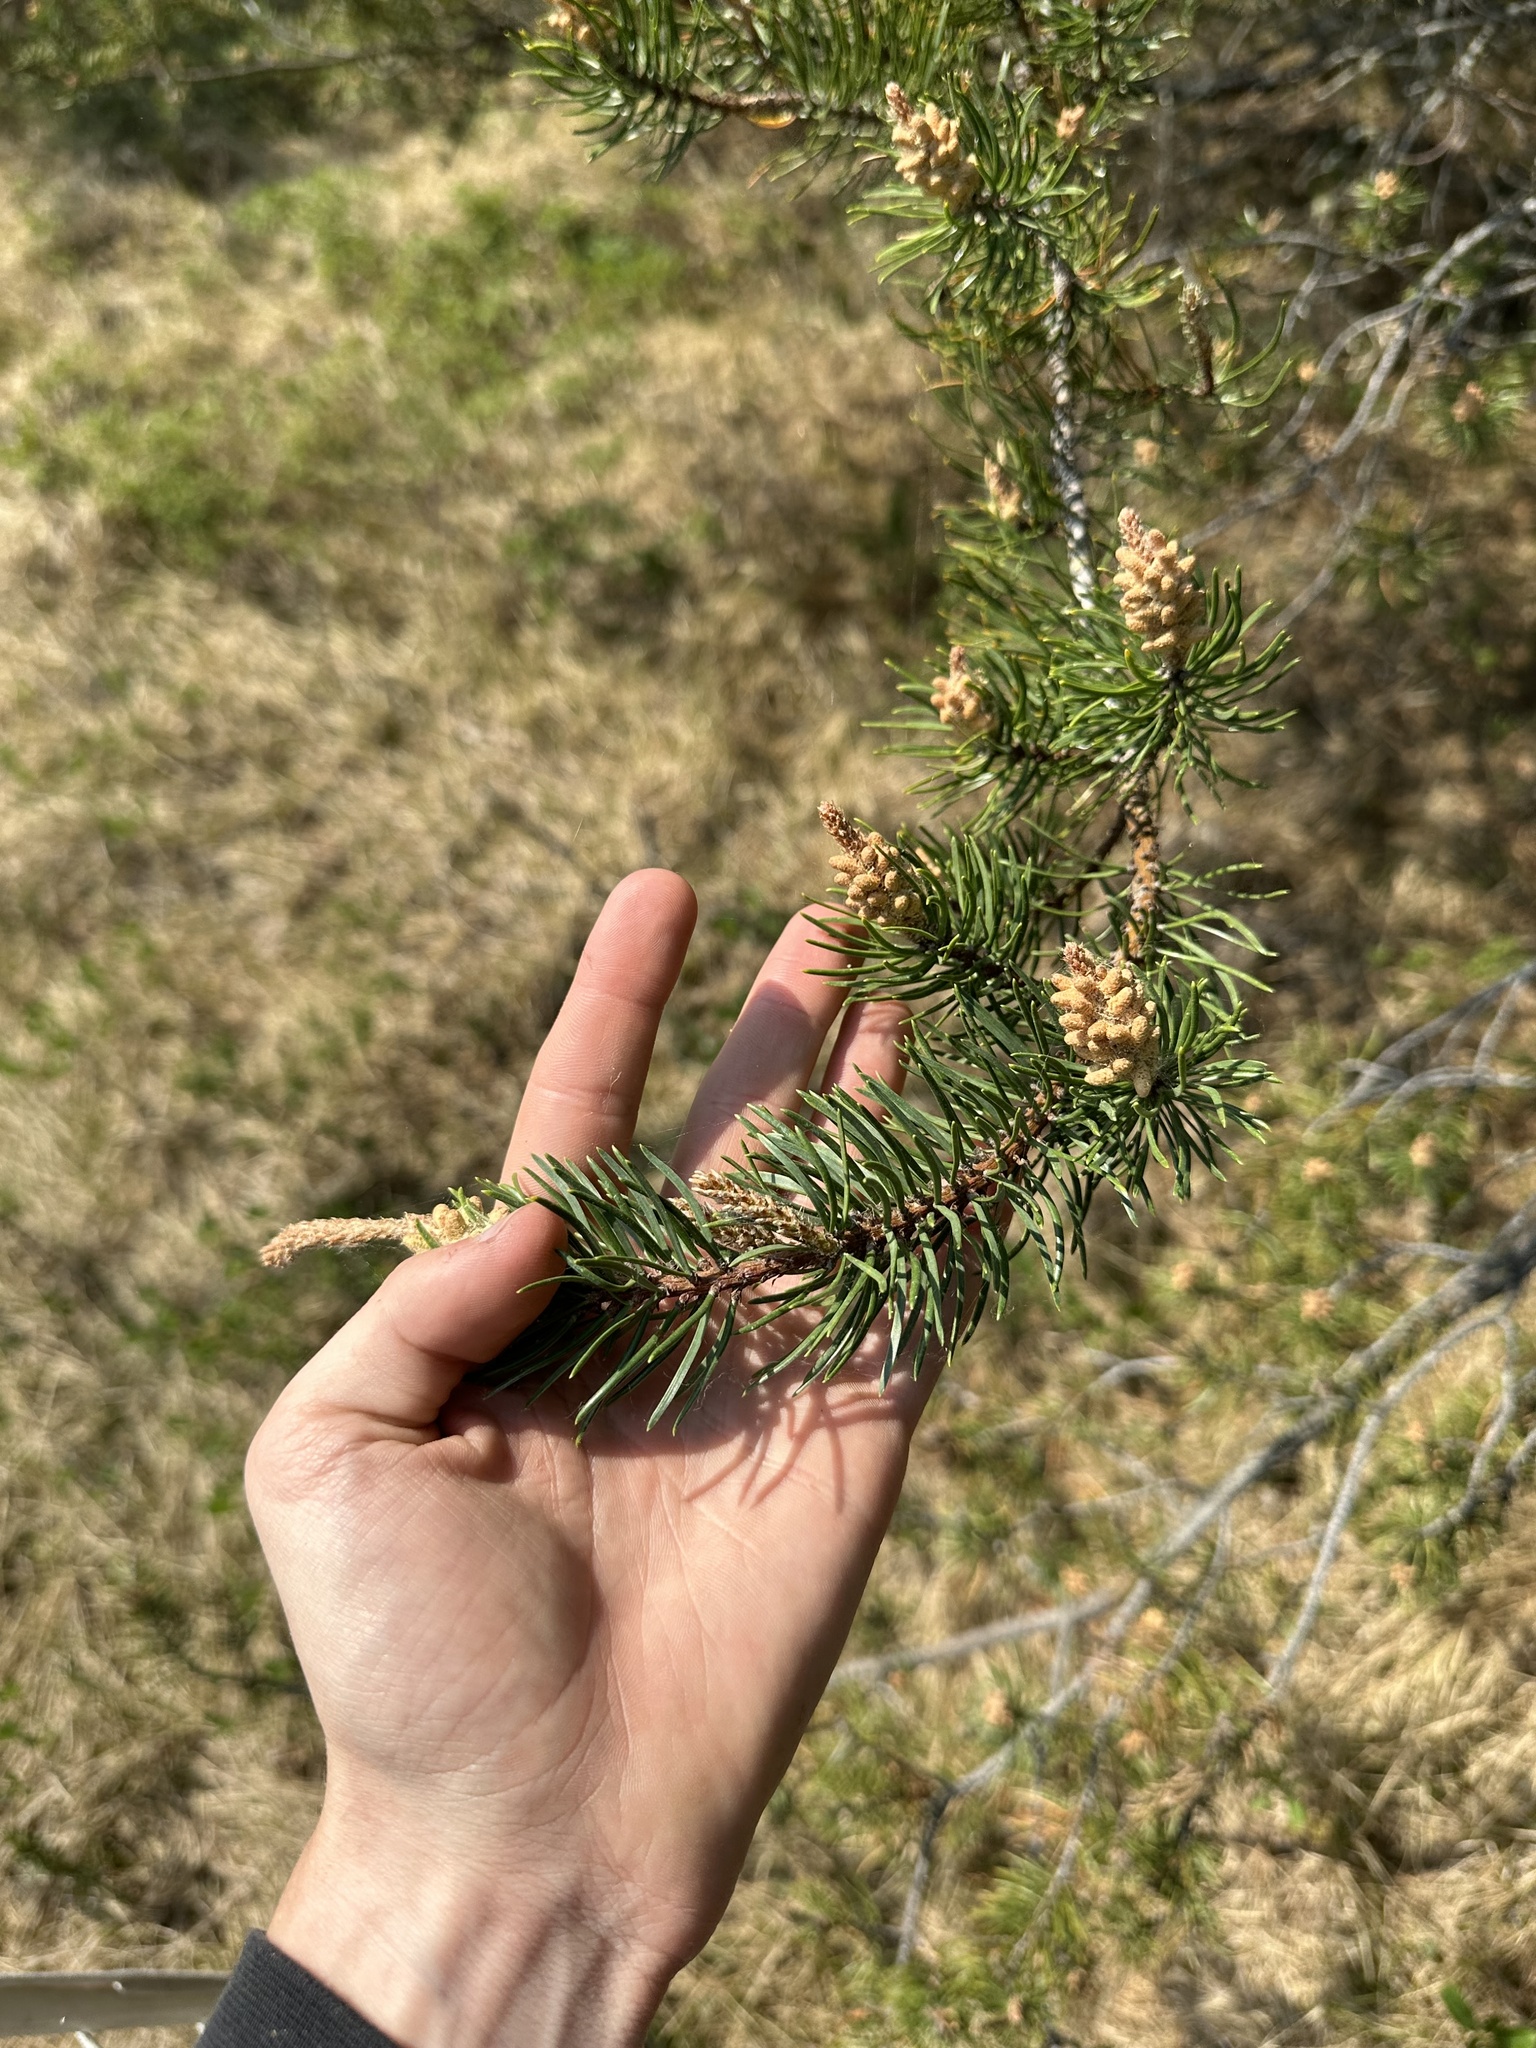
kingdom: Plantae
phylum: Tracheophyta
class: Pinopsida
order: Pinales
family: Pinaceae
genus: Pinus
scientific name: Pinus banksiana
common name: Jack pine
